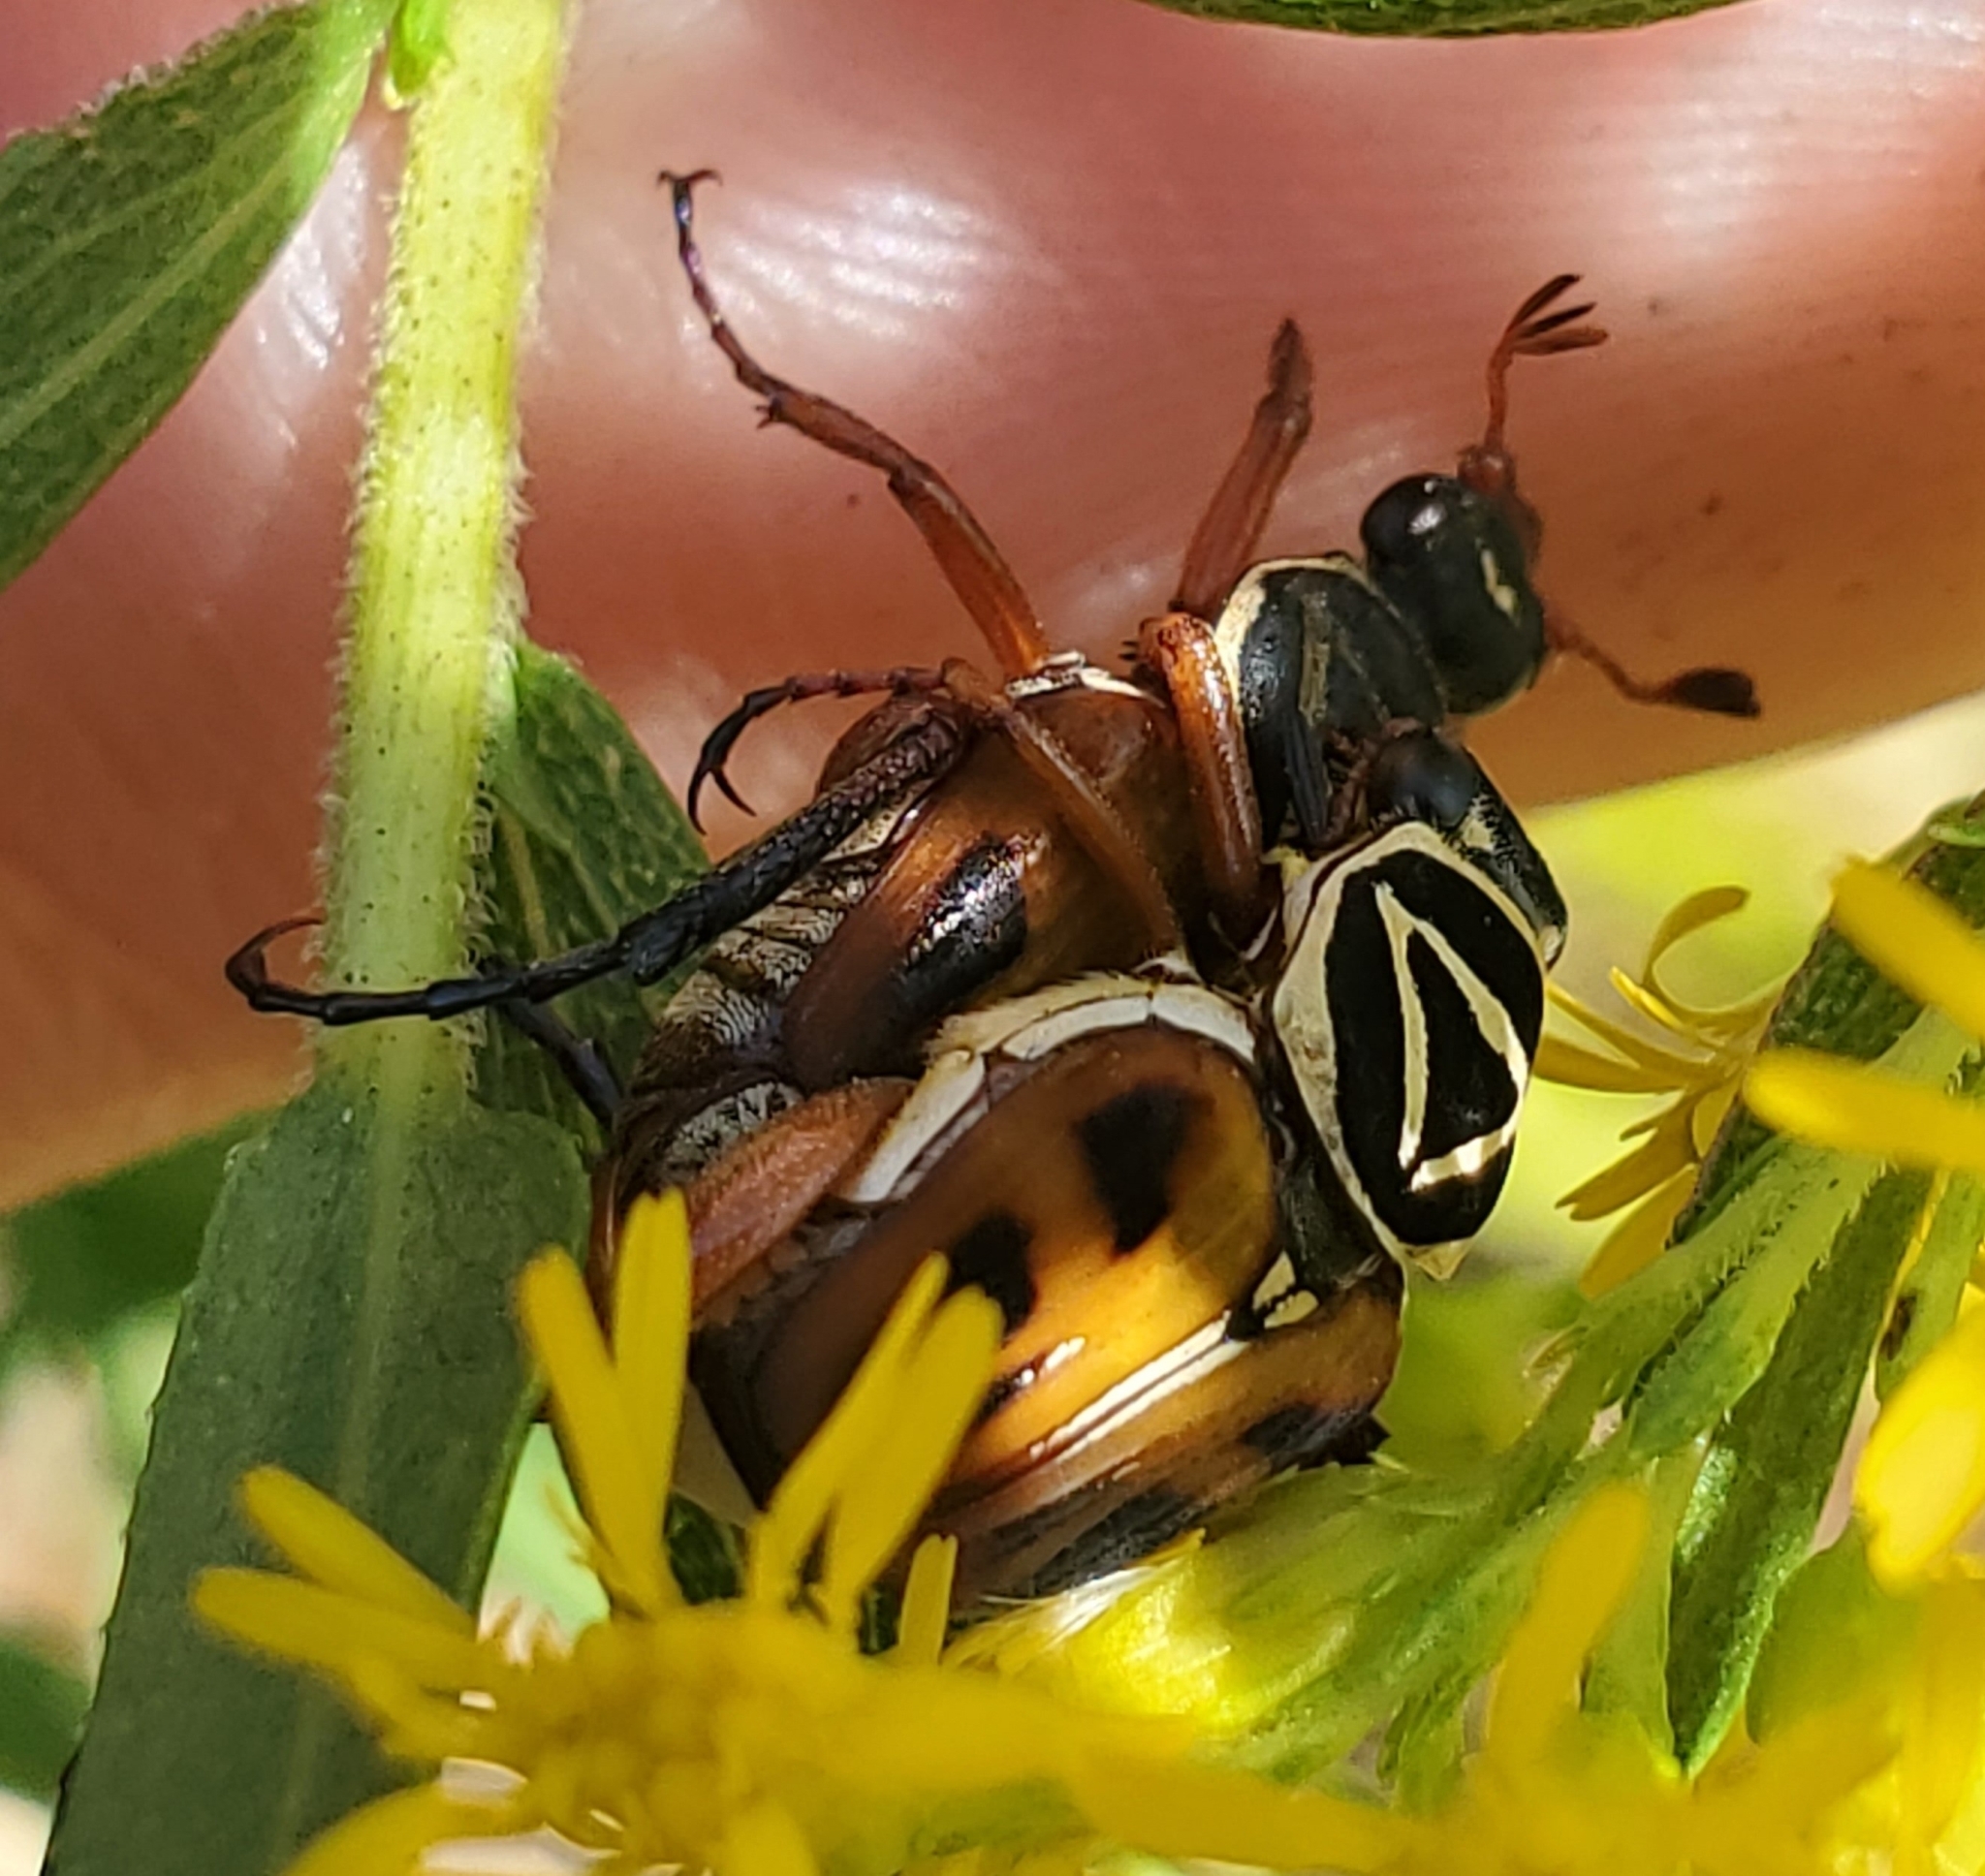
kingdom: Animalia
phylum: Arthropoda
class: Insecta
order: Coleoptera
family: Scarabaeidae
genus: Trigonopeltastes
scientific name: Trigonopeltastes delta
